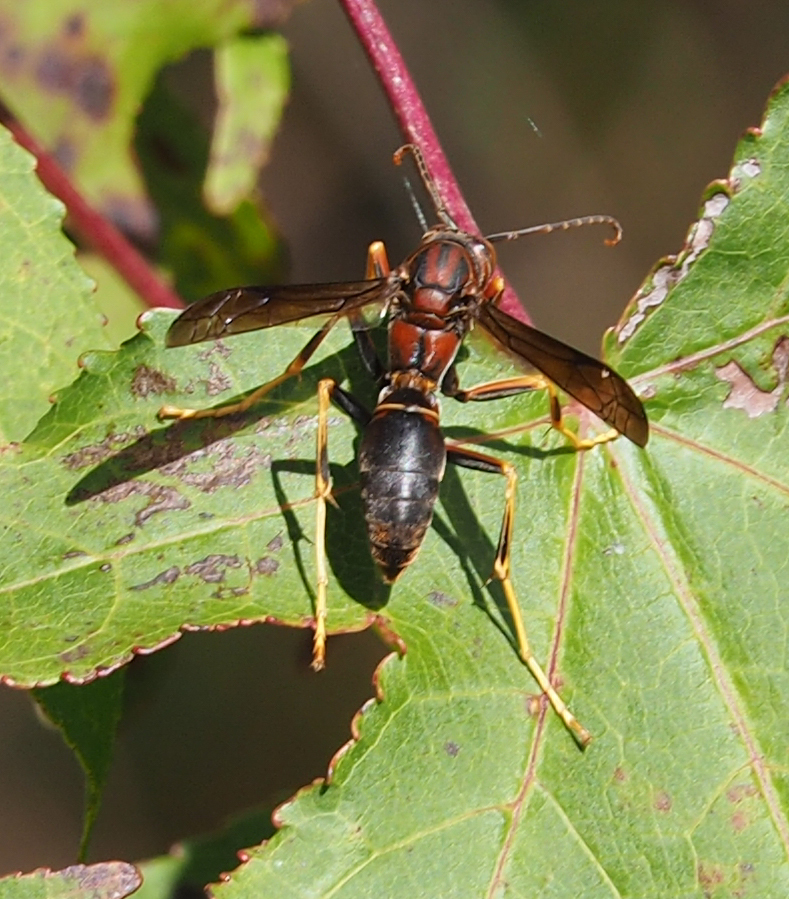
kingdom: Animalia
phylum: Arthropoda
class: Insecta
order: Hymenoptera
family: Eumenidae
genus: Polistes
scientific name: Polistes metricus
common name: Metric paper wasp
